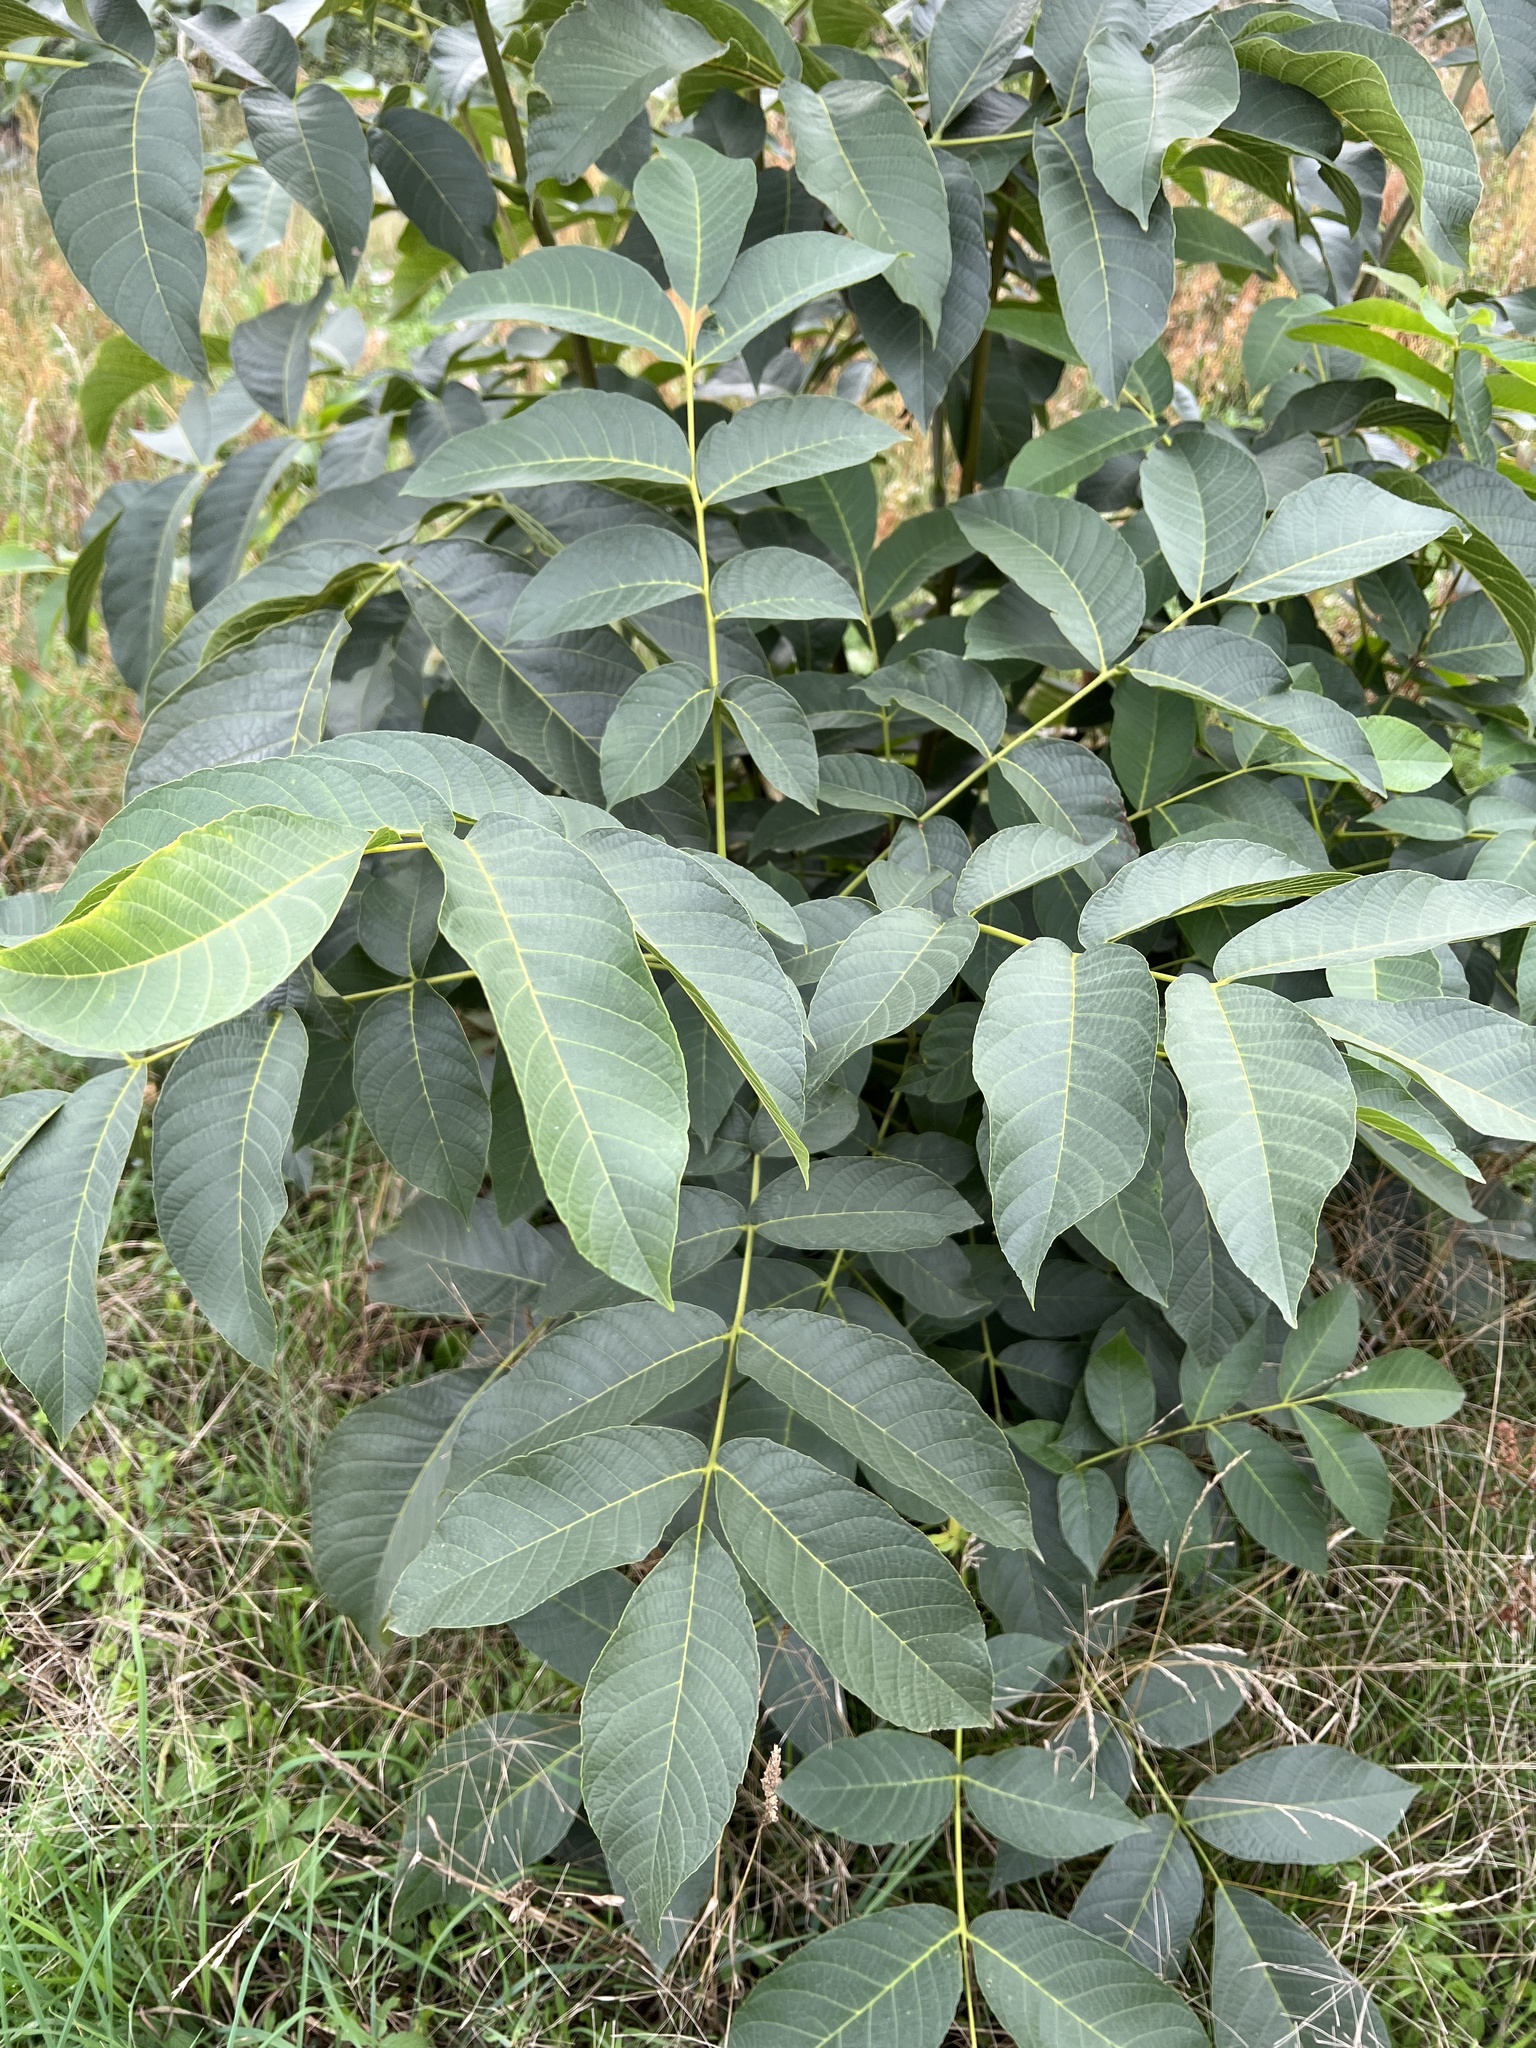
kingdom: Plantae
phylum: Tracheophyta
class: Magnoliopsida
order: Fagales
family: Juglandaceae
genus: Juglans
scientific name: Juglans regia
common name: Walnut
